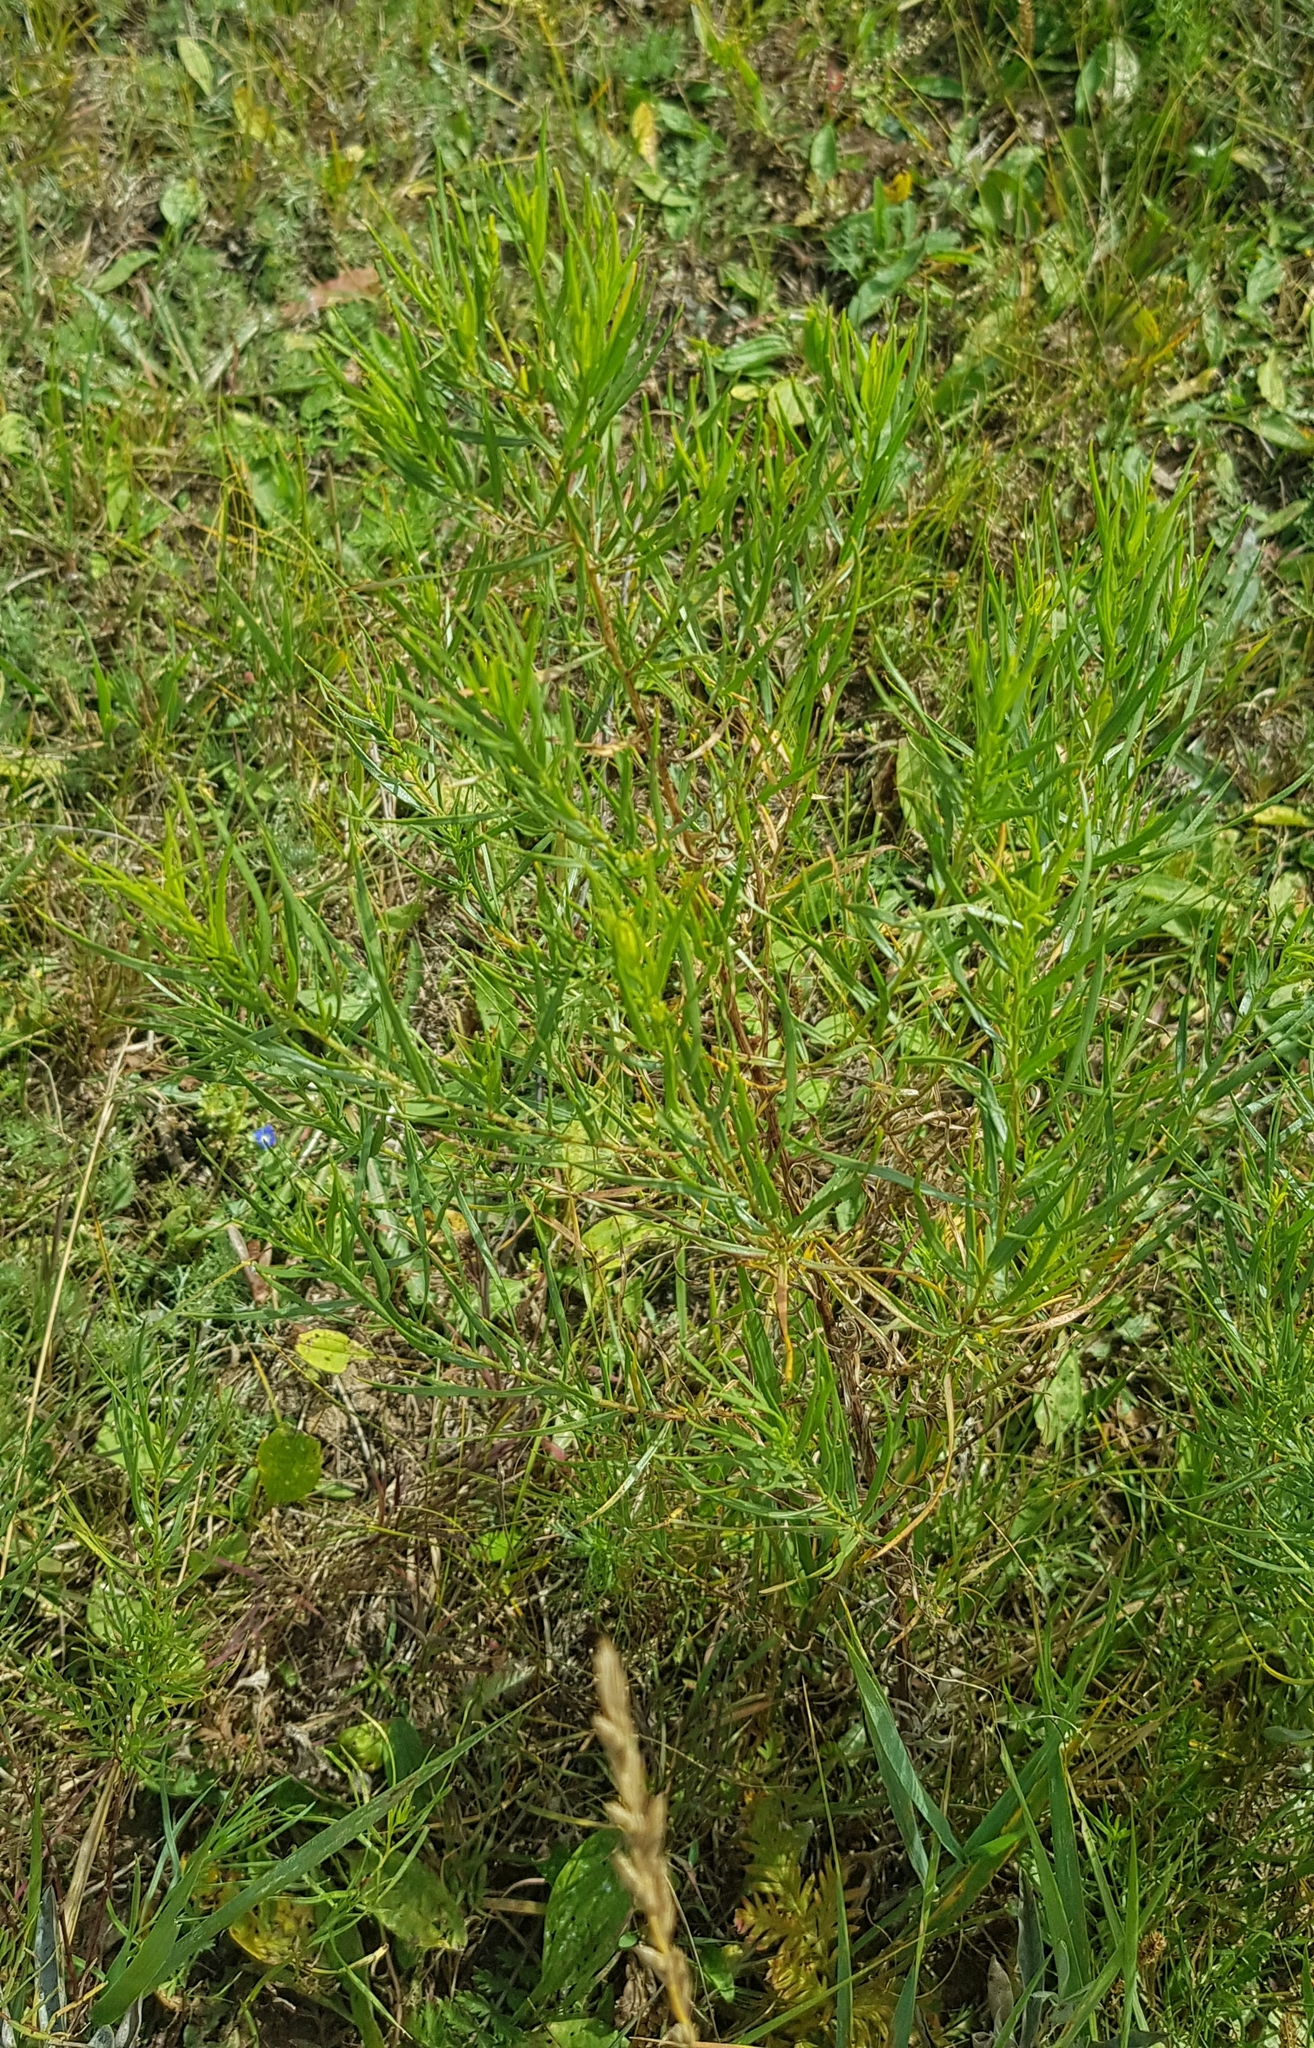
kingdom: Plantae
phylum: Tracheophyta
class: Magnoliopsida
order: Asterales
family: Asteraceae
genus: Artemisia
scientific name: Artemisia dracunculus
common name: Tarragon
